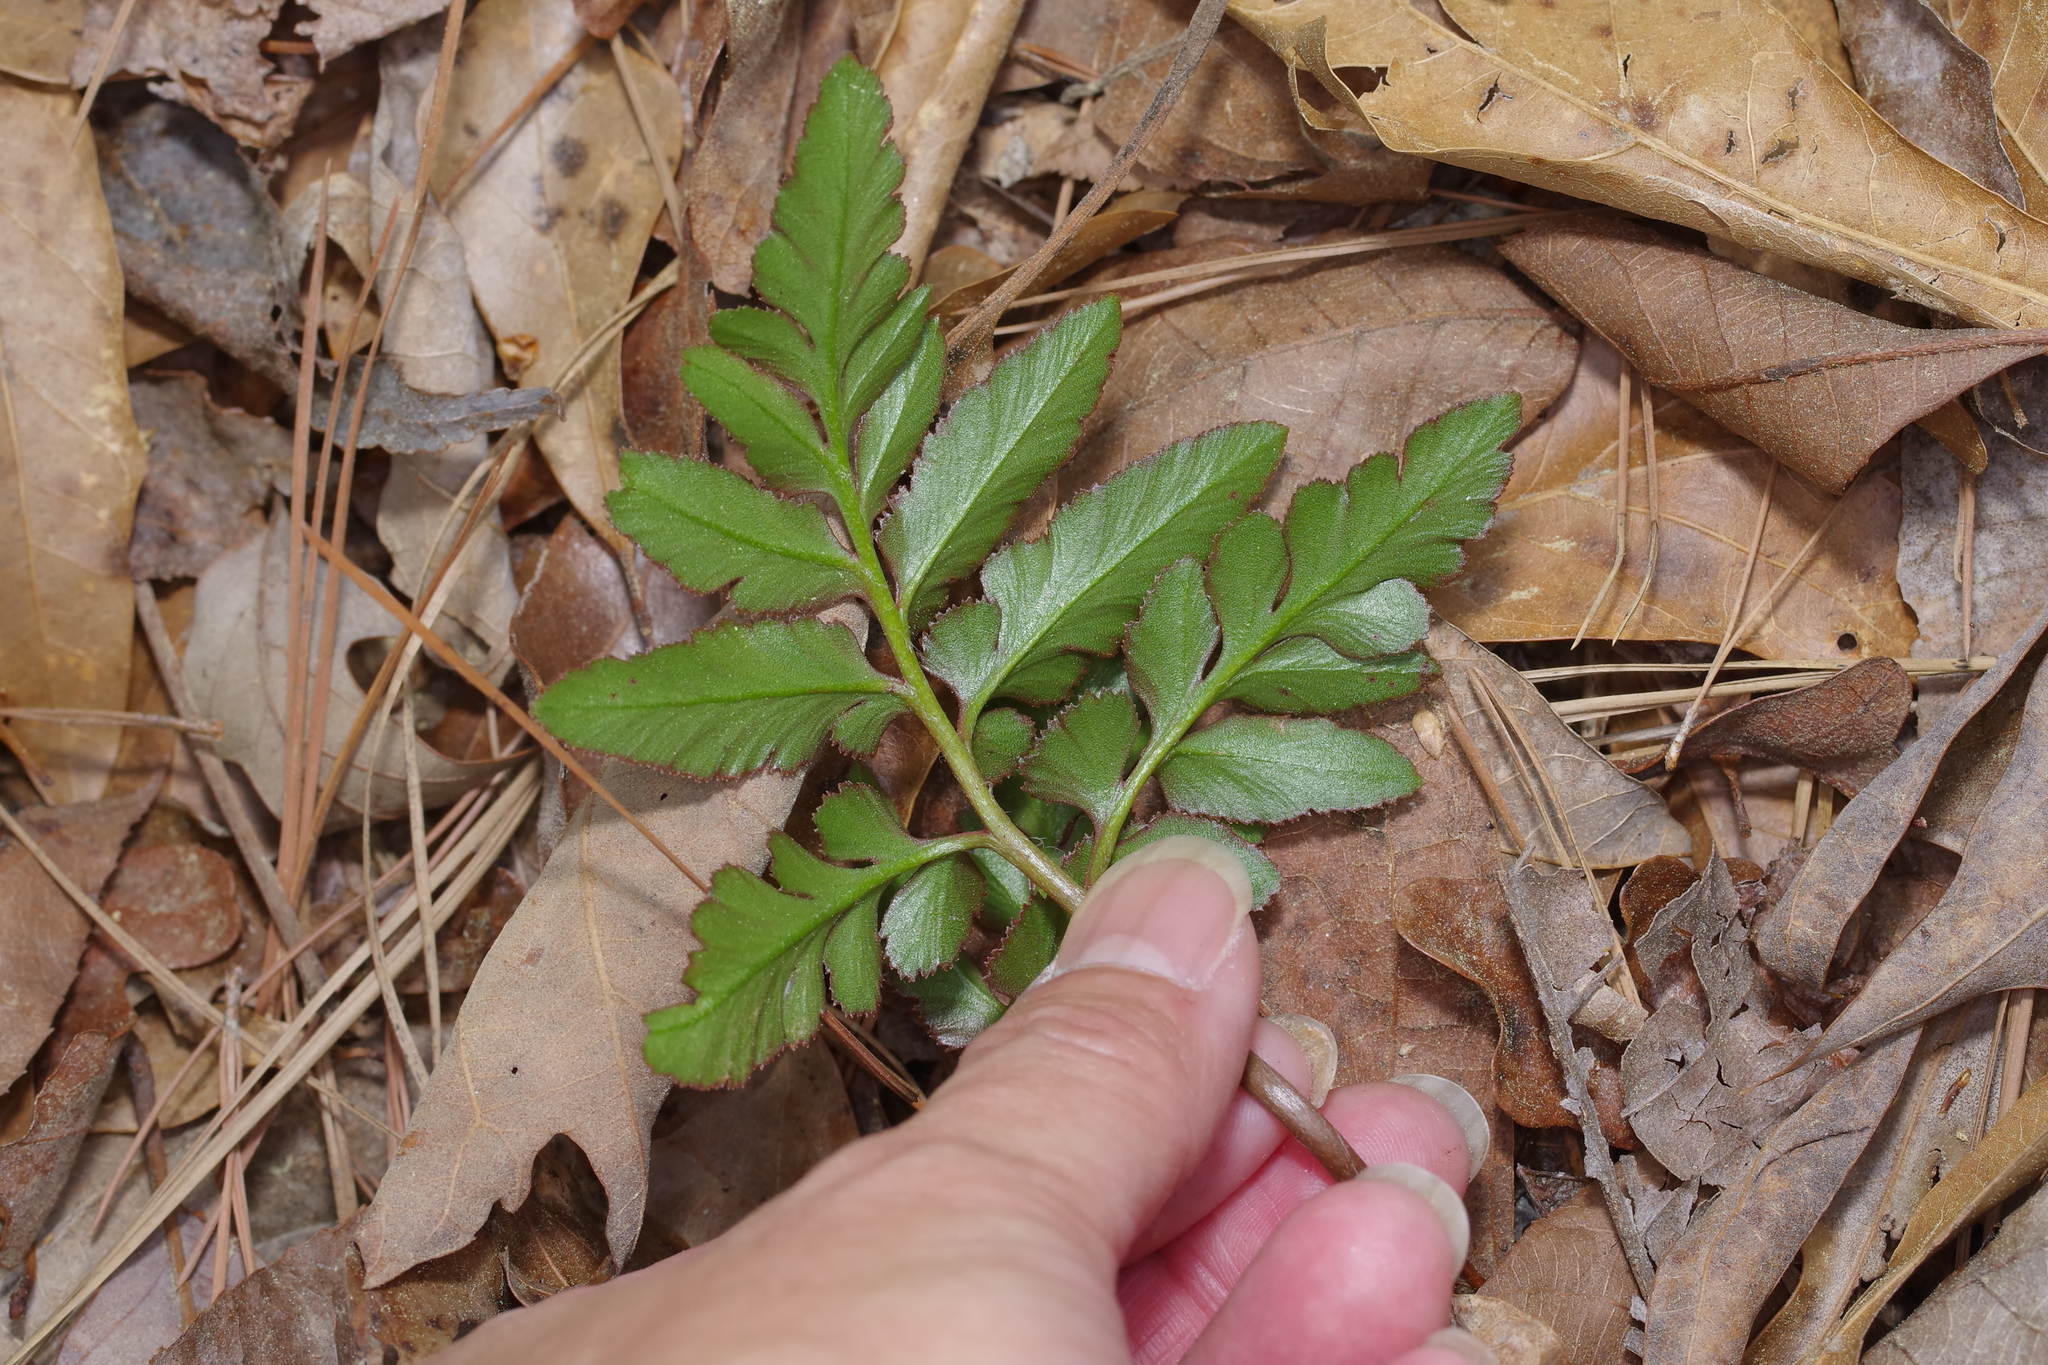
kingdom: Plantae
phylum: Tracheophyta
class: Polypodiopsida
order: Ophioglossales
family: Ophioglossaceae
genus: Sceptridium
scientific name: Sceptridium biternatum
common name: Sparse-lobed grapefern
